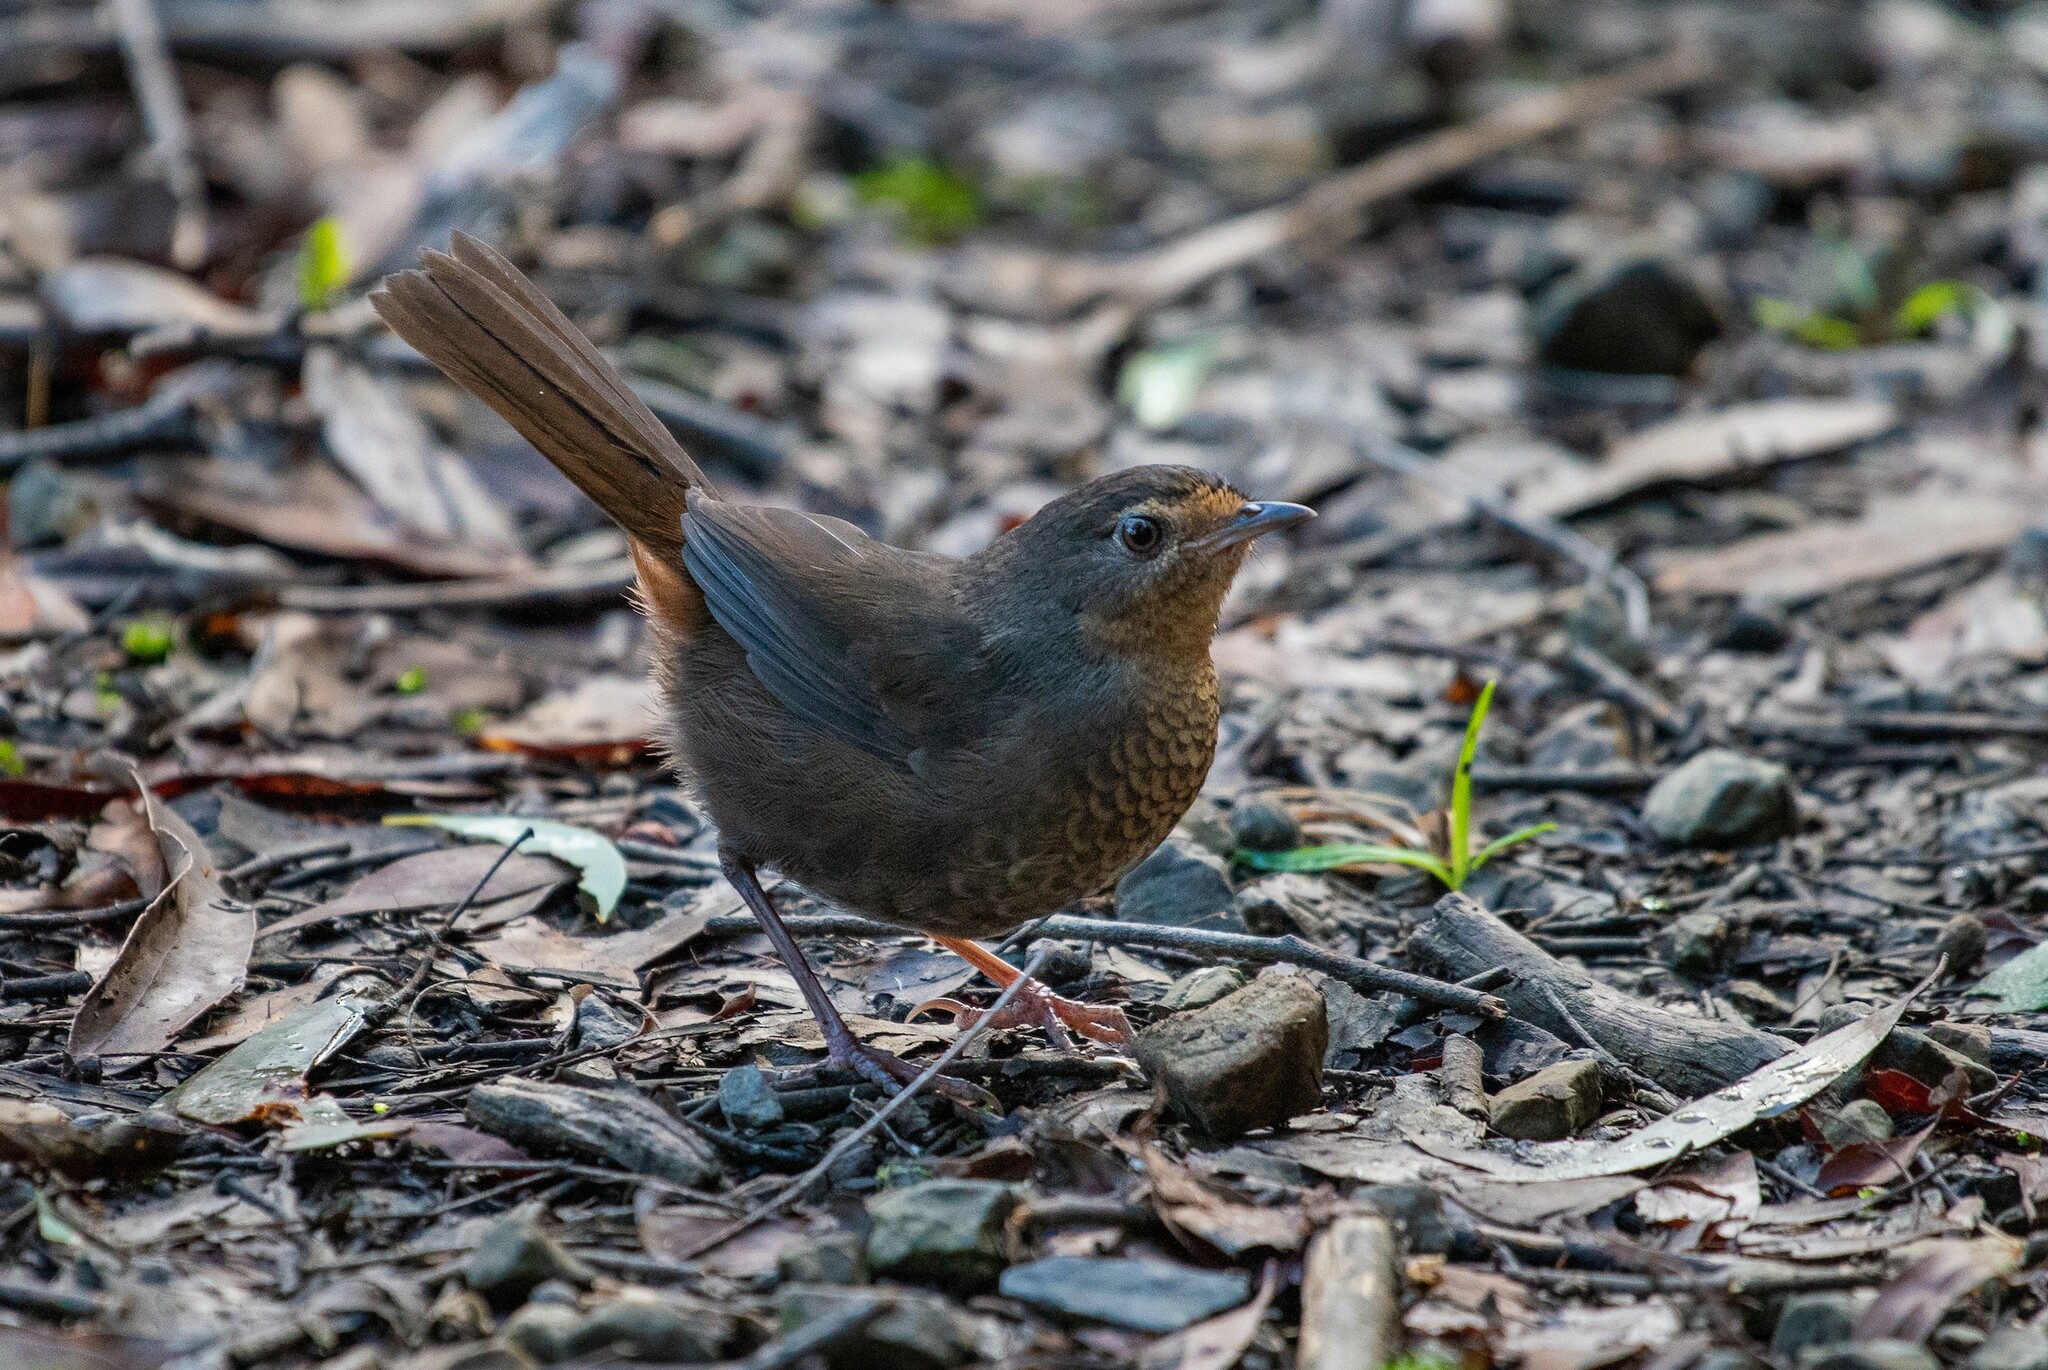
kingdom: Animalia
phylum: Chordata
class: Aves
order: Passeriformes
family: Acanthizidae
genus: Pycnoptilus
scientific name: Pycnoptilus floccosus
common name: Pilotbird
